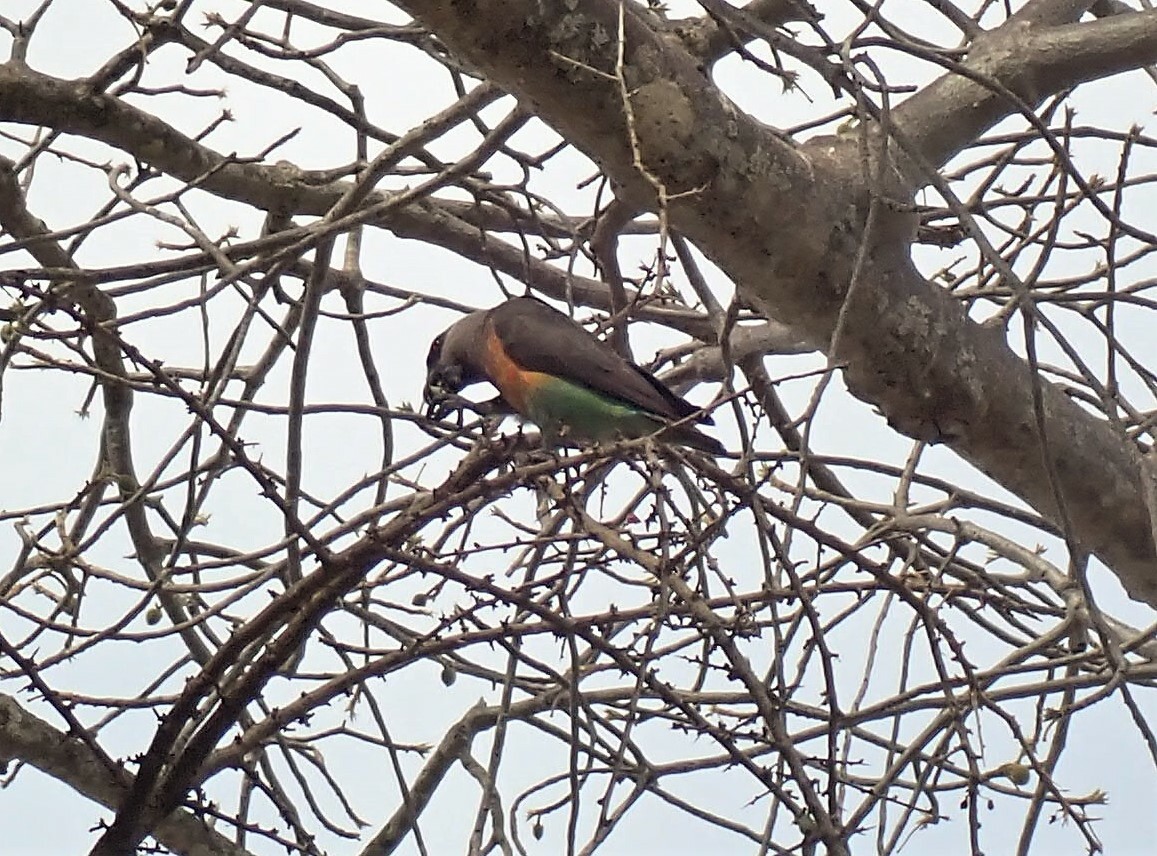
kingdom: Animalia
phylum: Chordata
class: Aves
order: Psittaciformes
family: Psittacidae
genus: Poicephalus
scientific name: Poicephalus rufiventris
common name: Red-bellied parrot
